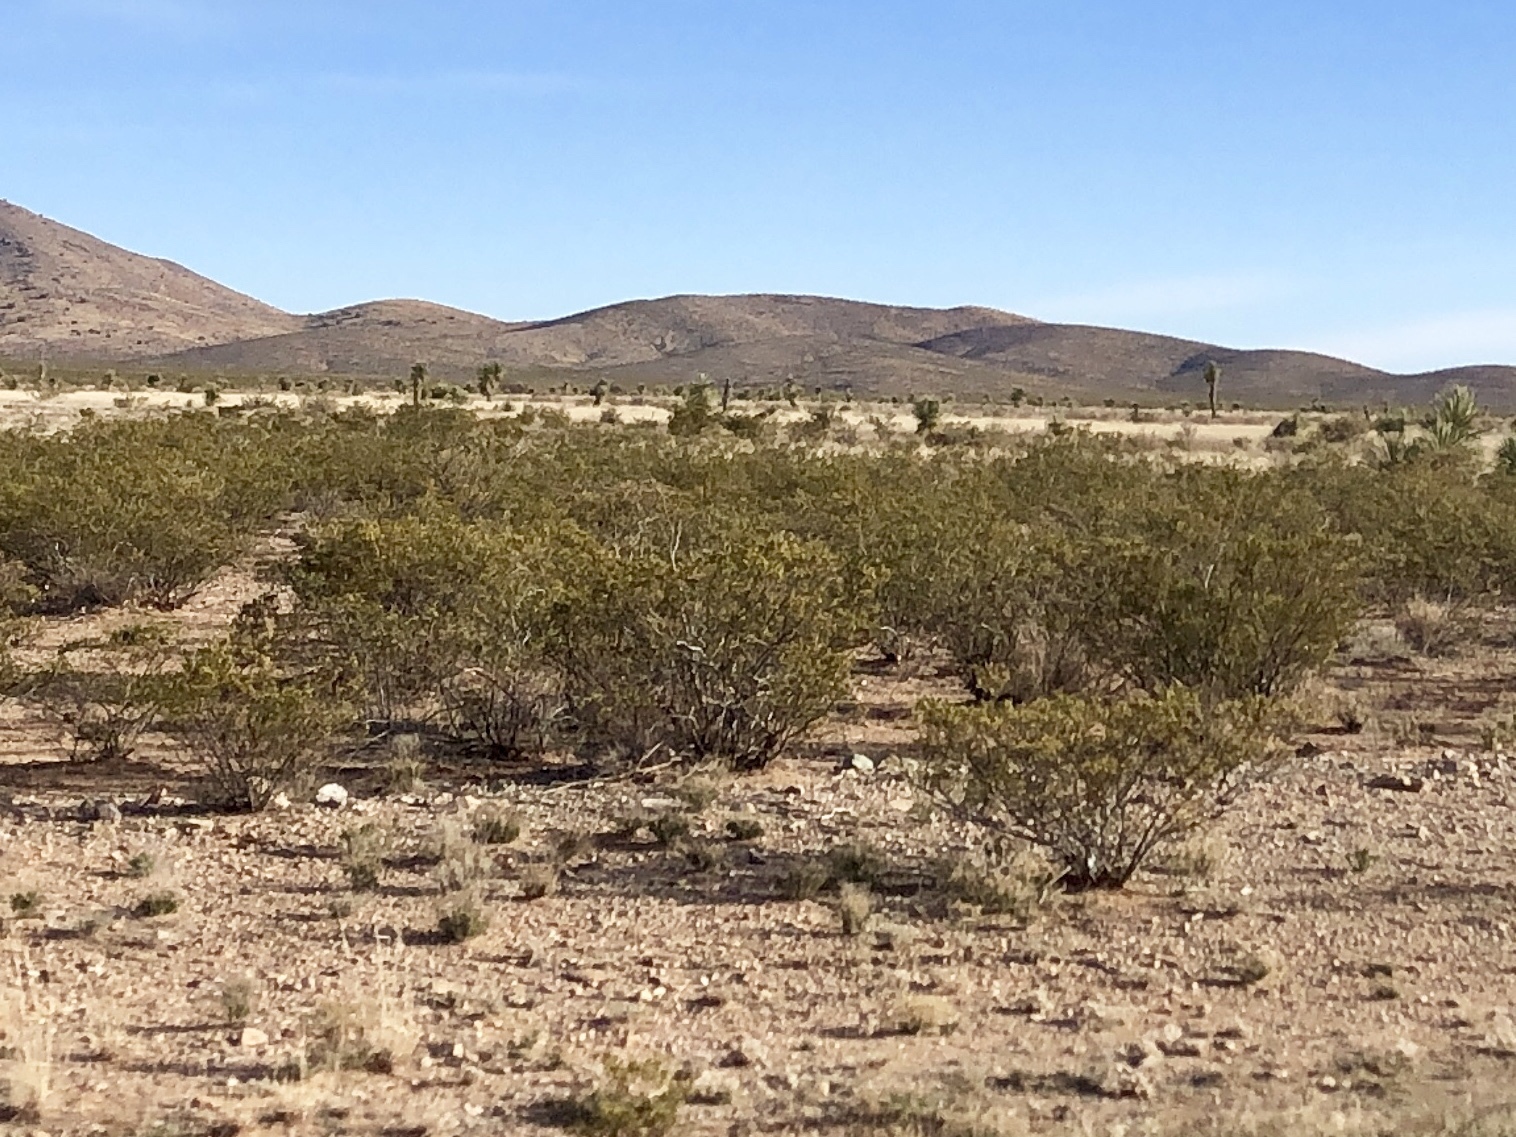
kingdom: Plantae
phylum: Tracheophyta
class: Magnoliopsida
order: Zygophyllales
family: Zygophyllaceae
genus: Larrea
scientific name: Larrea tridentata
